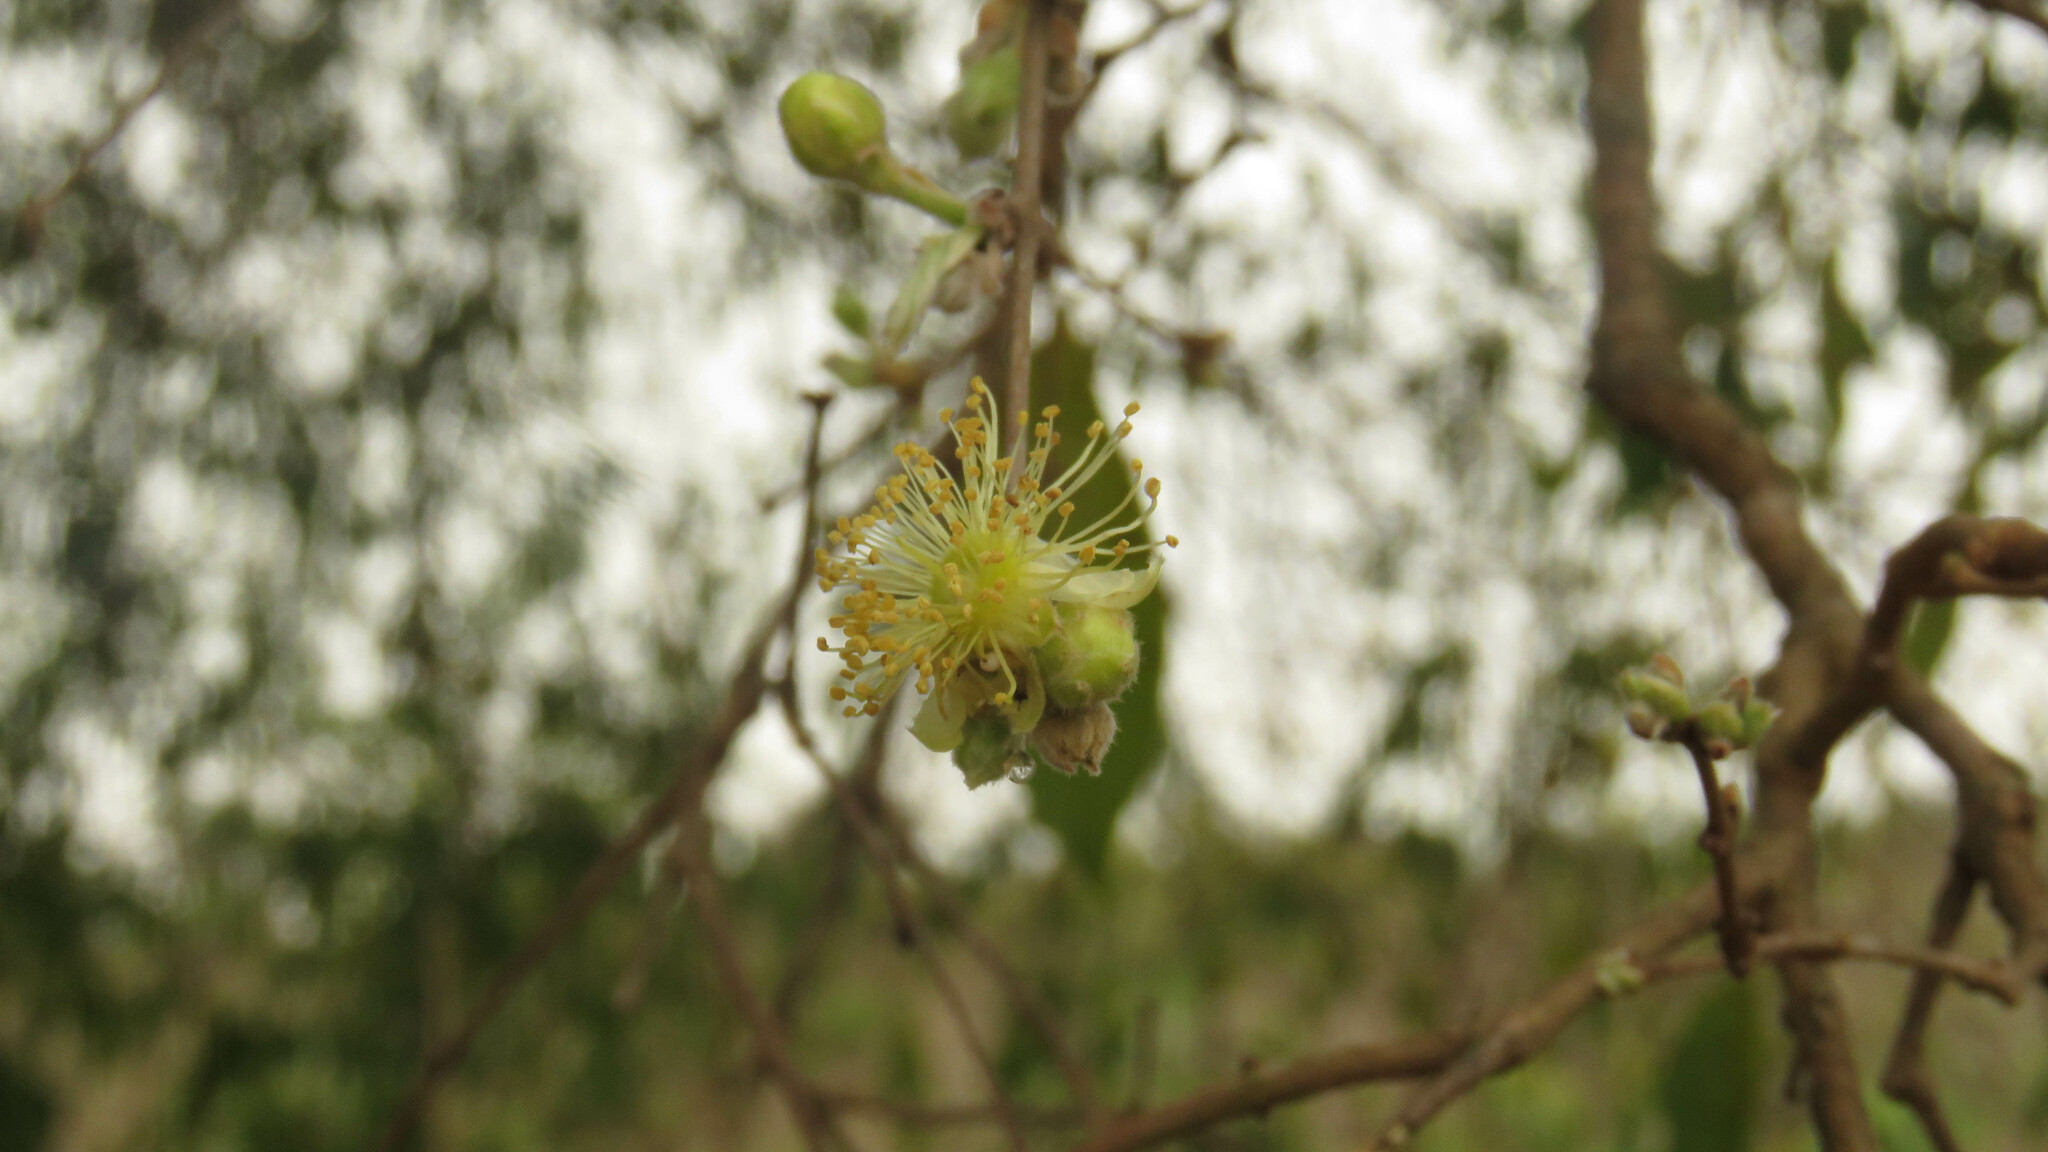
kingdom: Plantae
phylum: Tracheophyta
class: Magnoliopsida
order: Myrtales
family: Myrtaceae
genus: Eugenia
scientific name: Eugenia myrcianthes
